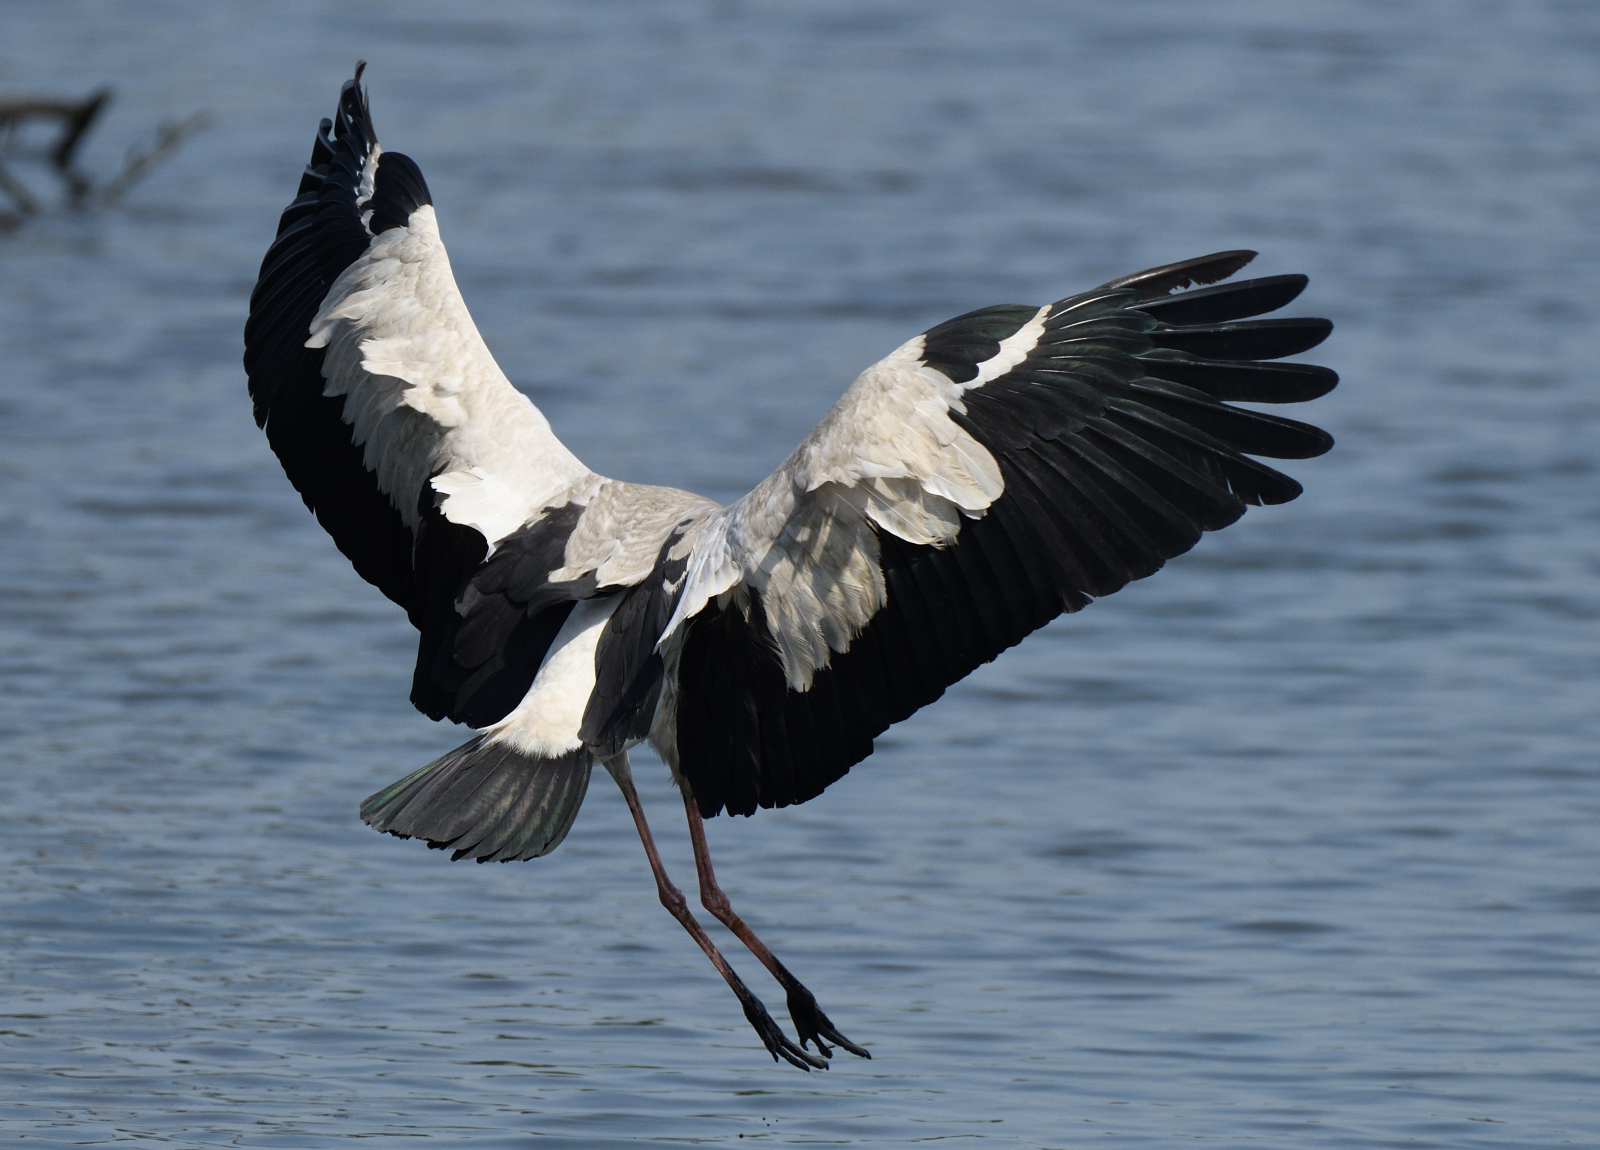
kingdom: Animalia
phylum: Chordata
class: Aves
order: Ciconiiformes
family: Ciconiidae
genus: Anastomus
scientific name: Anastomus oscitans
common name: Asian openbill
